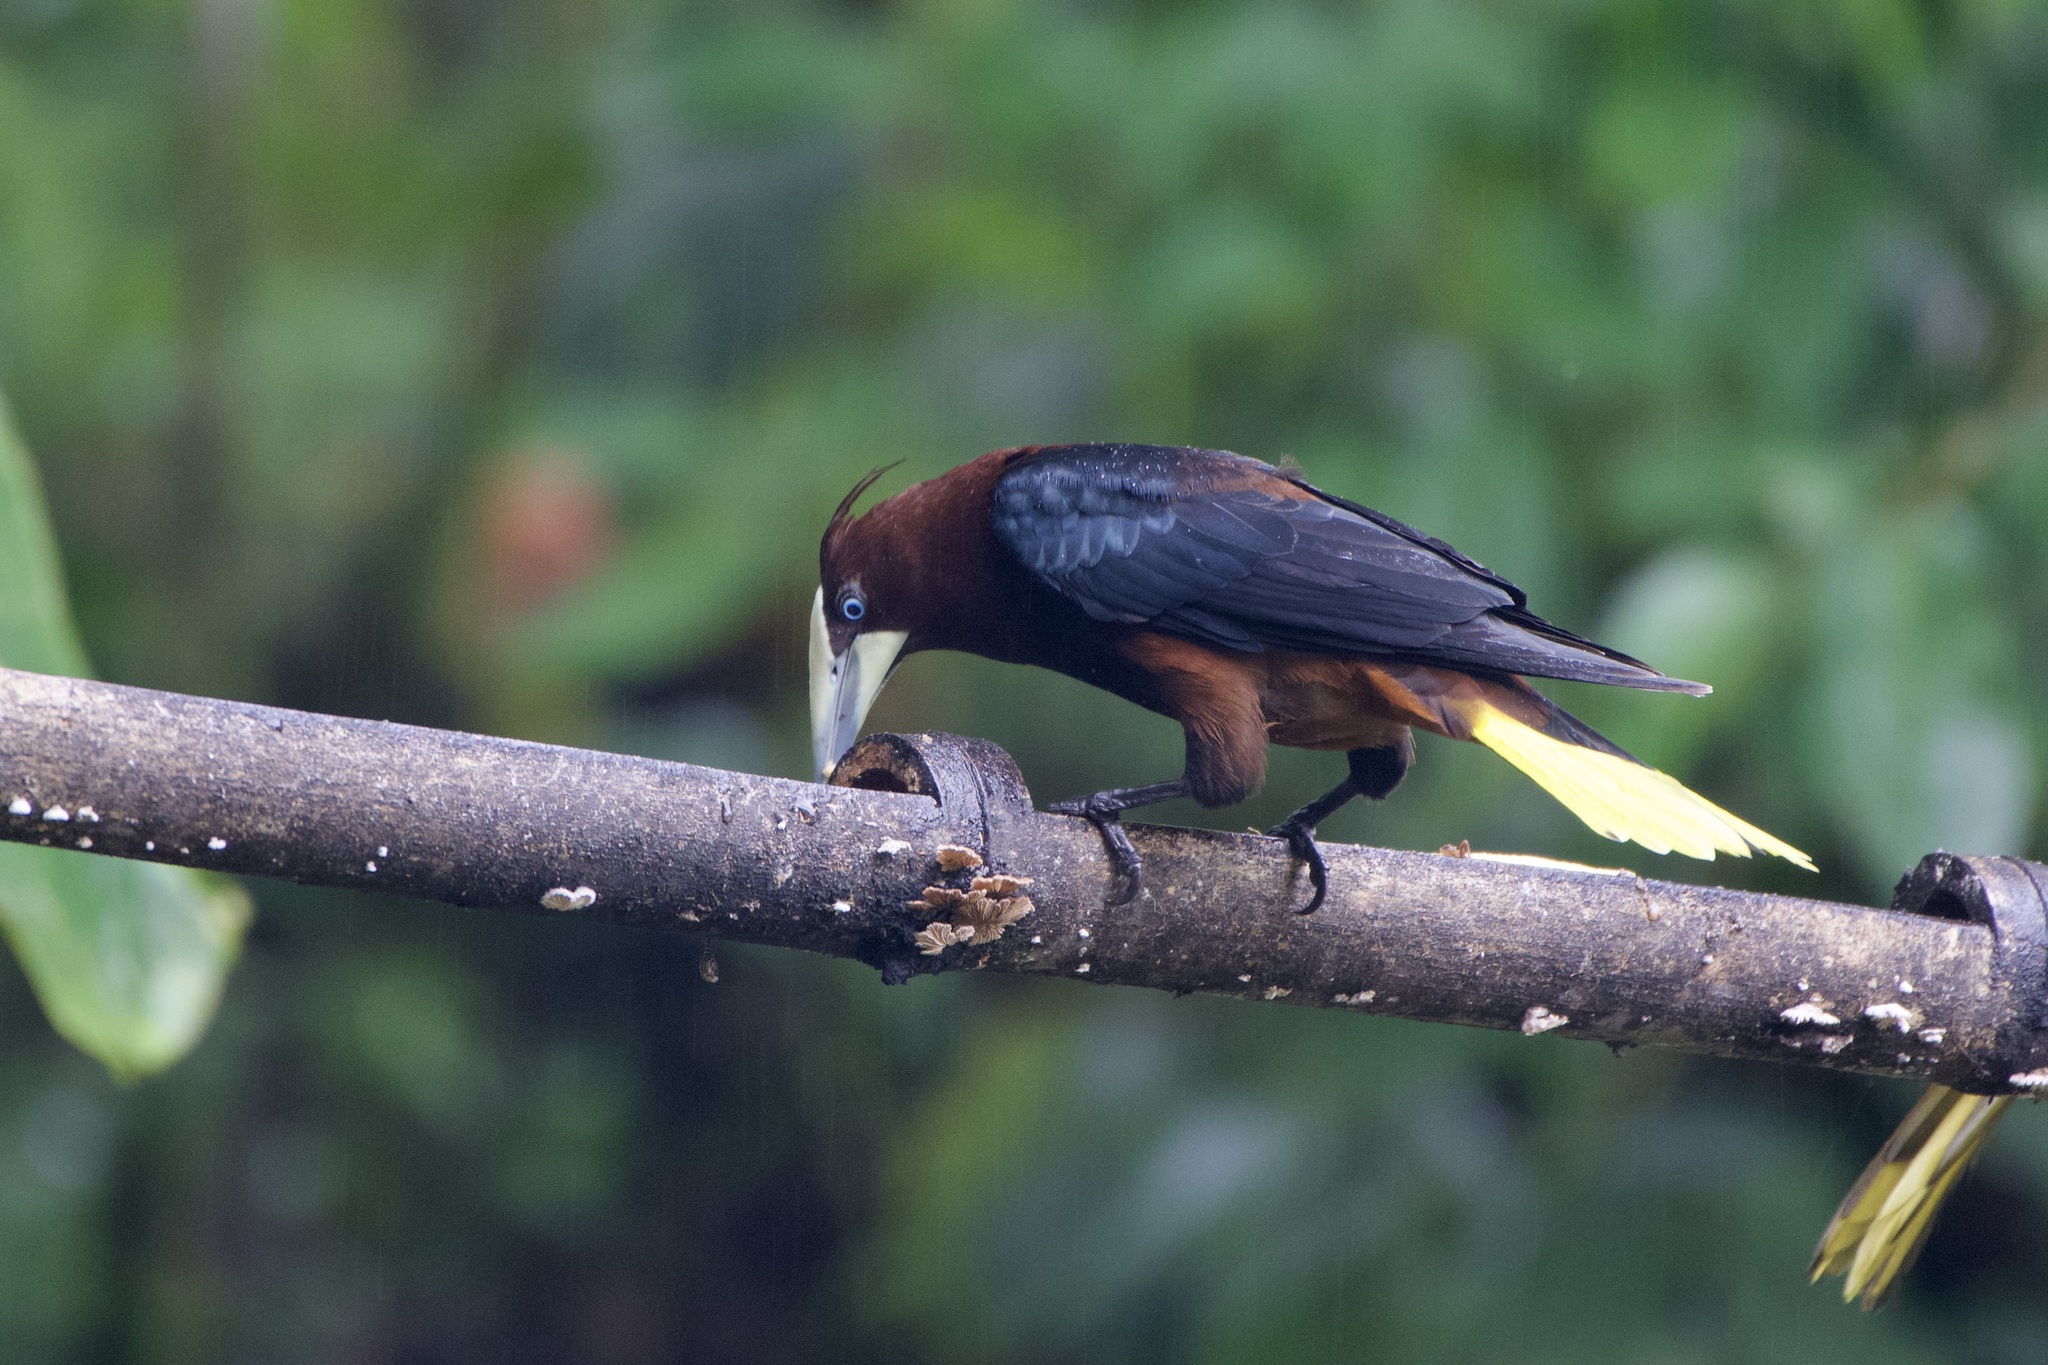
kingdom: Animalia
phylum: Chordata
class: Aves
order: Passeriformes
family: Icteridae
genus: Psarocolius
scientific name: Psarocolius wagleri
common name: Chestnut-headed oropendola
